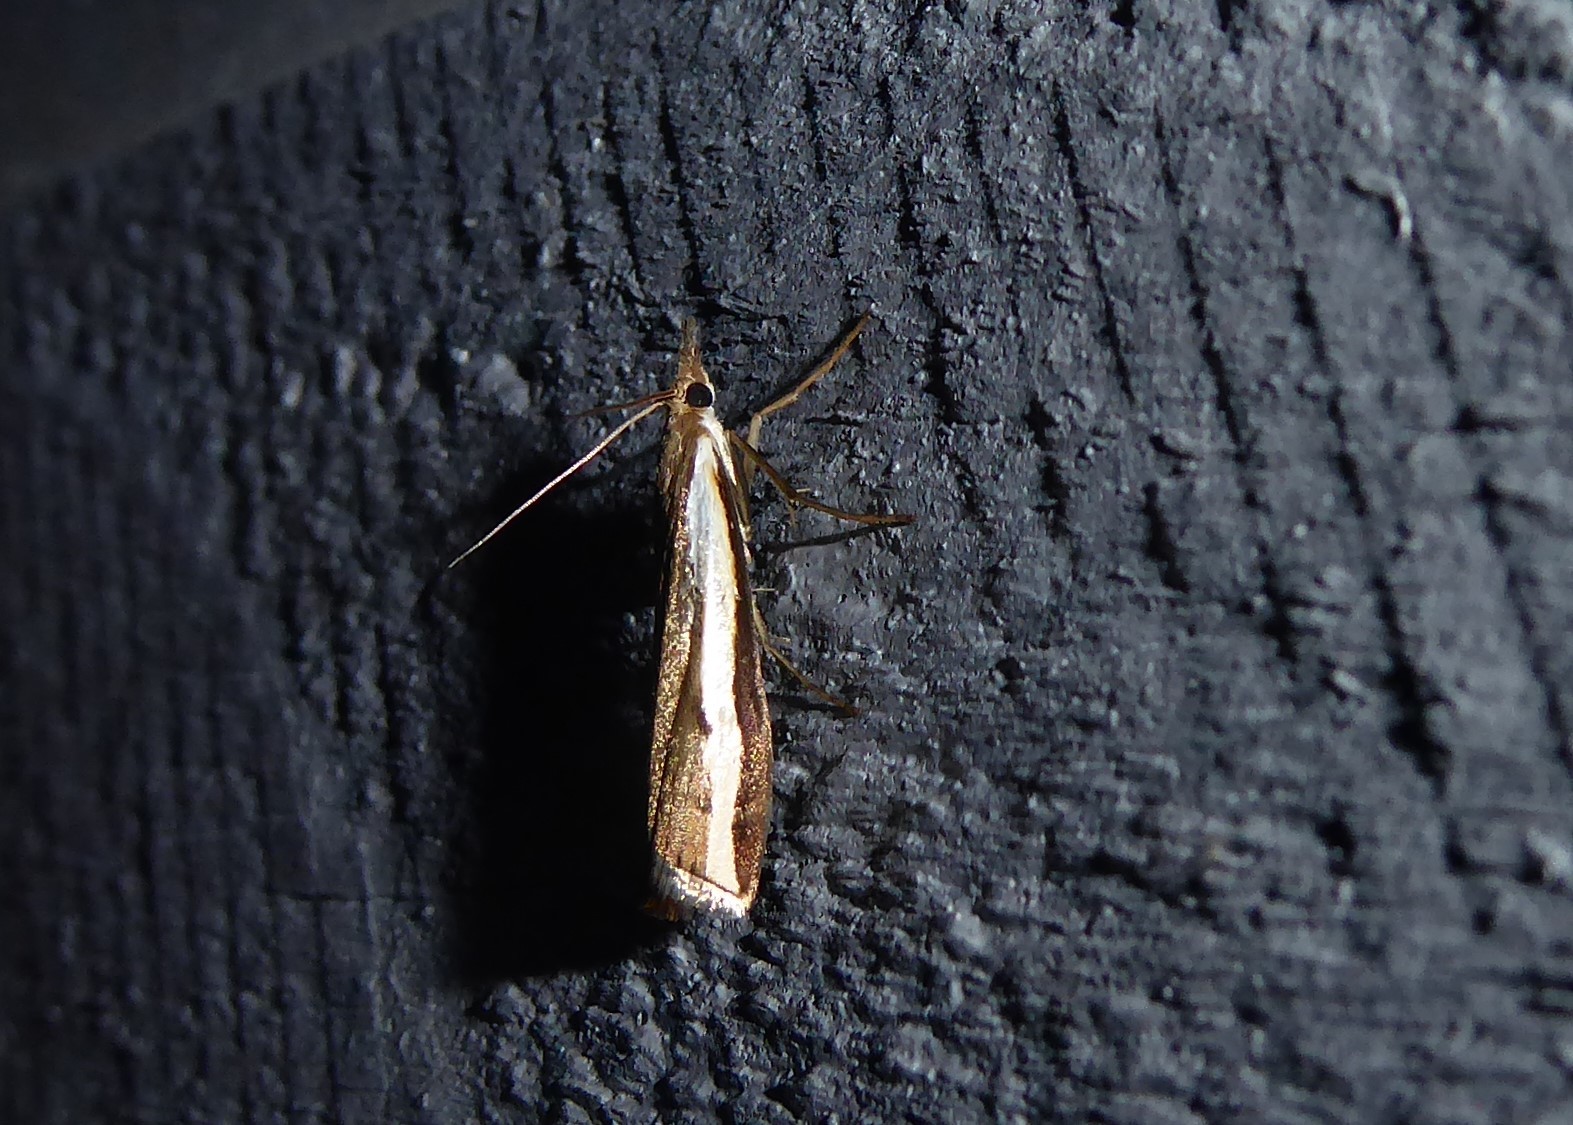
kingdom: Animalia
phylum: Arthropoda
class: Insecta
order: Lepidoptera
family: Crambidae
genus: Orocrambus
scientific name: Orocrambus flexuosellus
